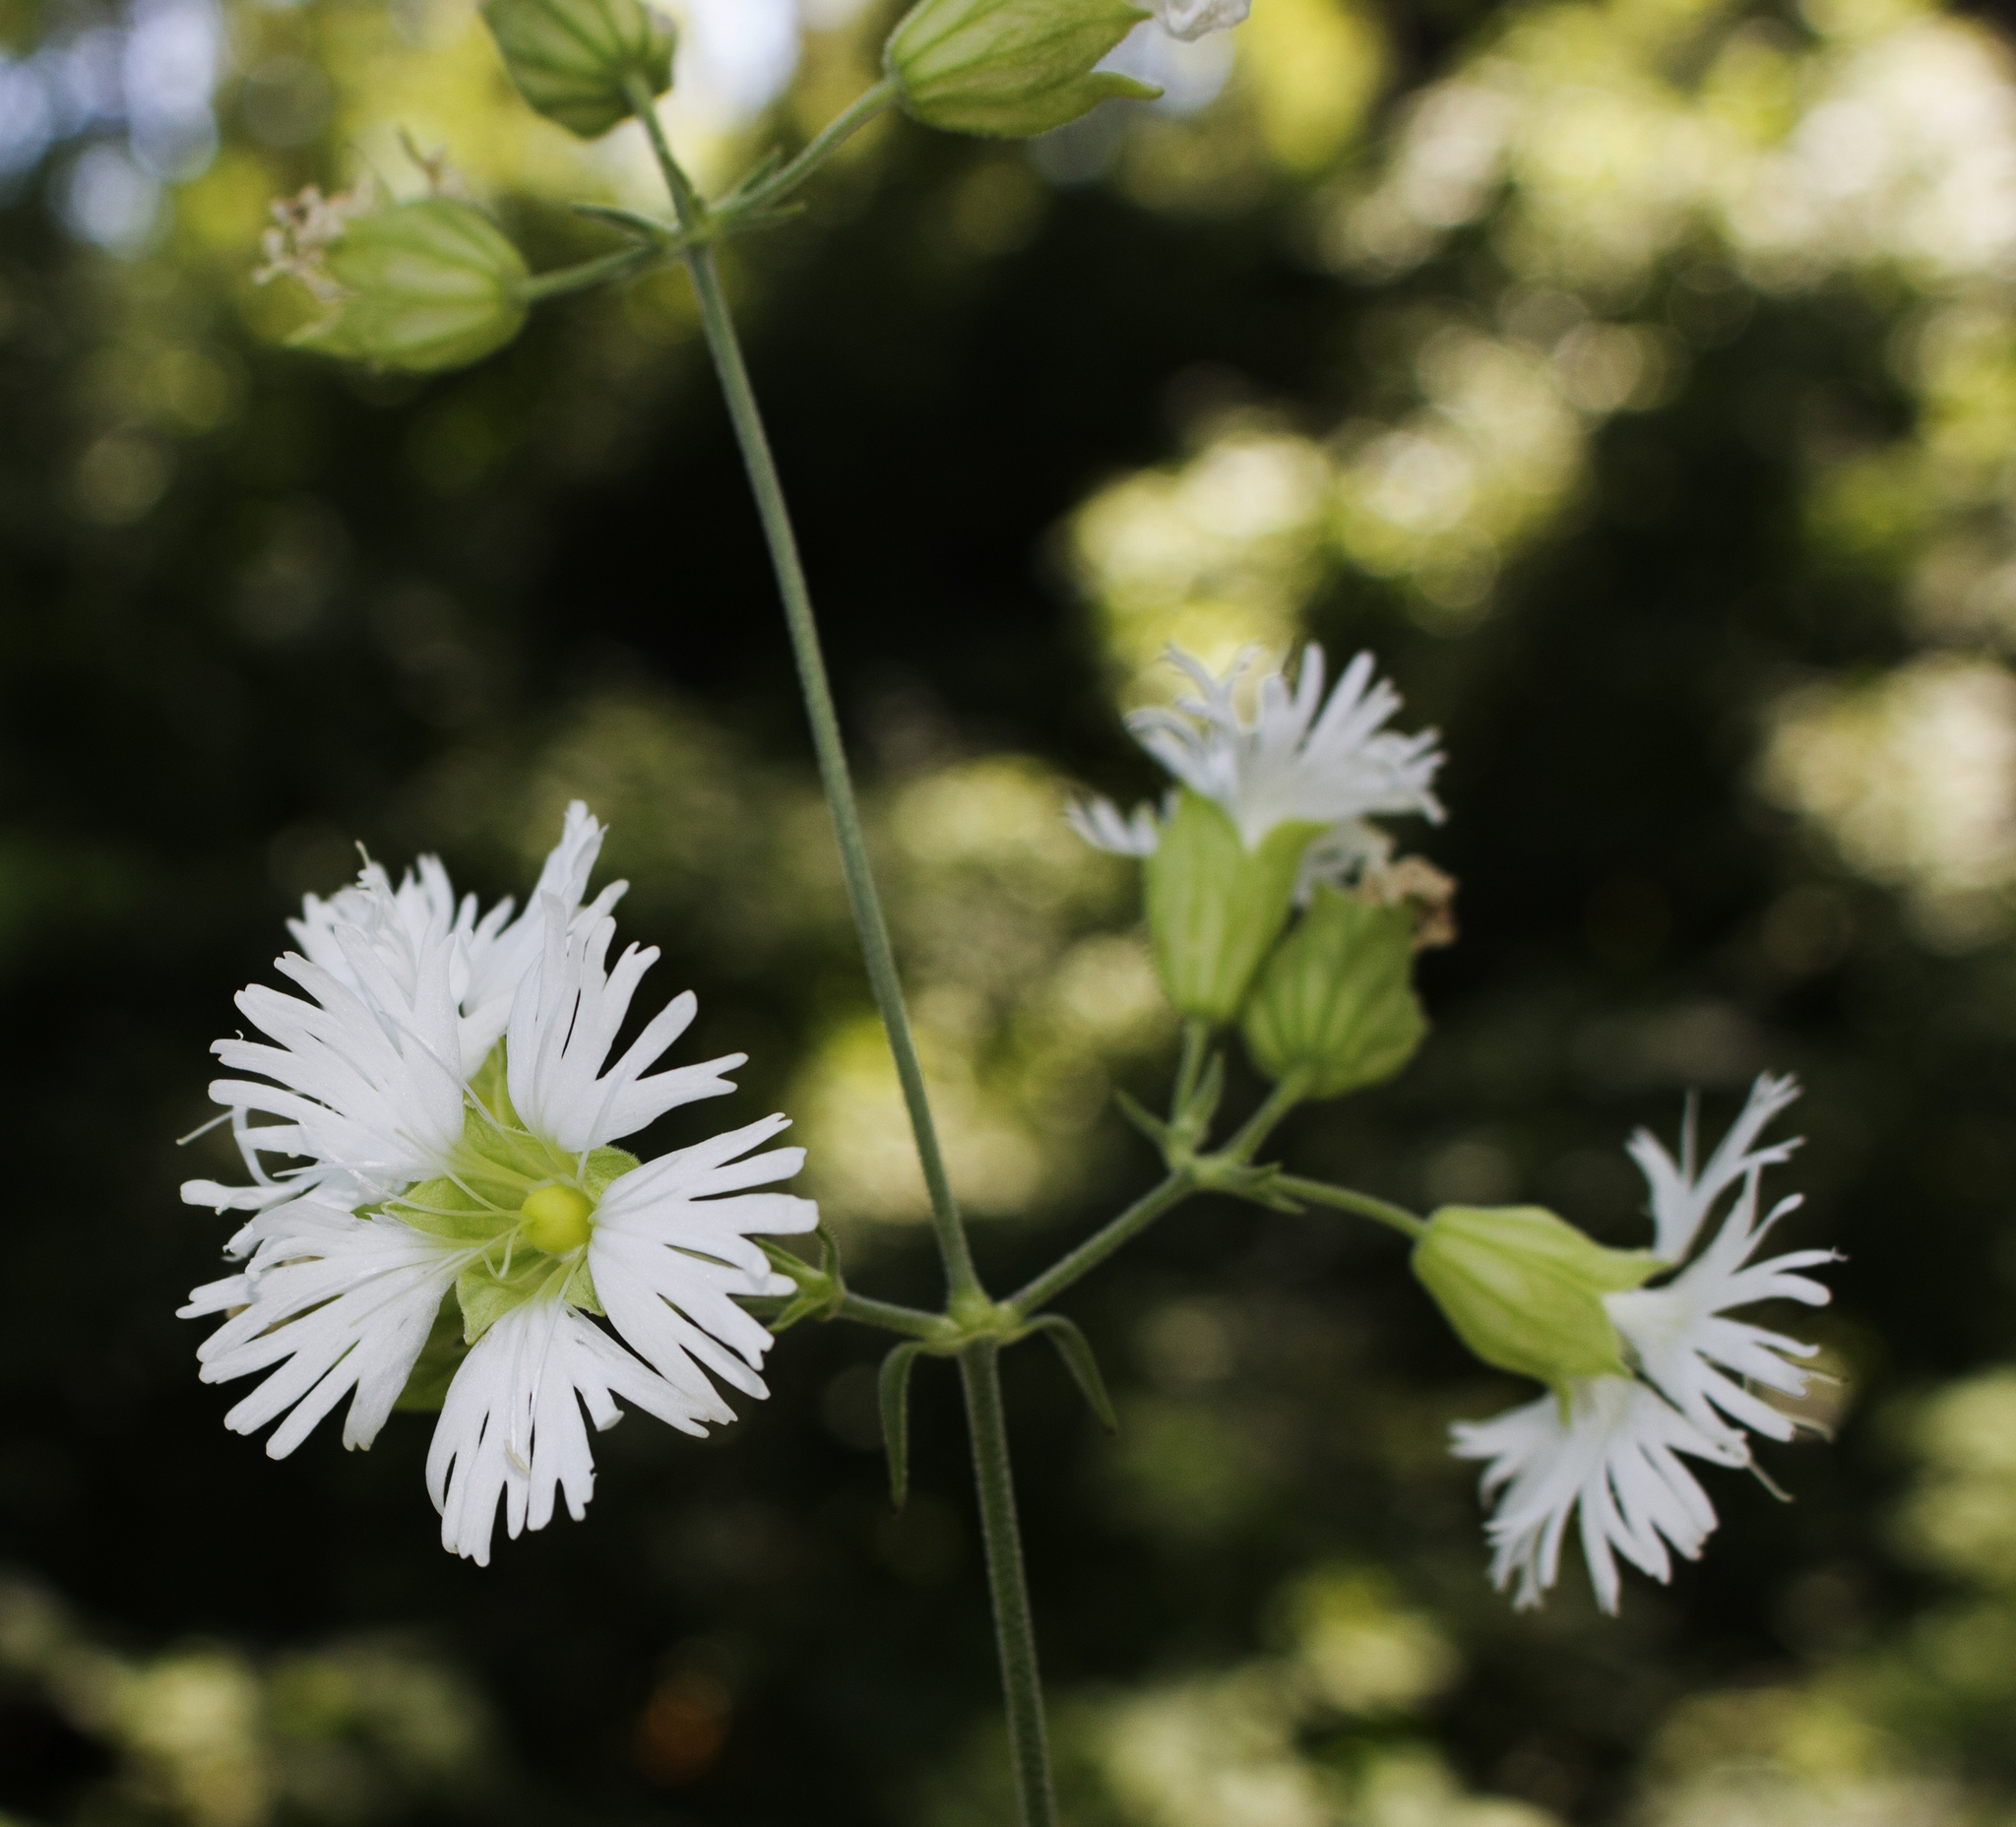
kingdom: Plantae
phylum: Tracheophyta
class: Magnoliopsida
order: Caryophyllales
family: Caryophyllaceae
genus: Silene
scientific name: Silene stellata
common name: Starry campion
